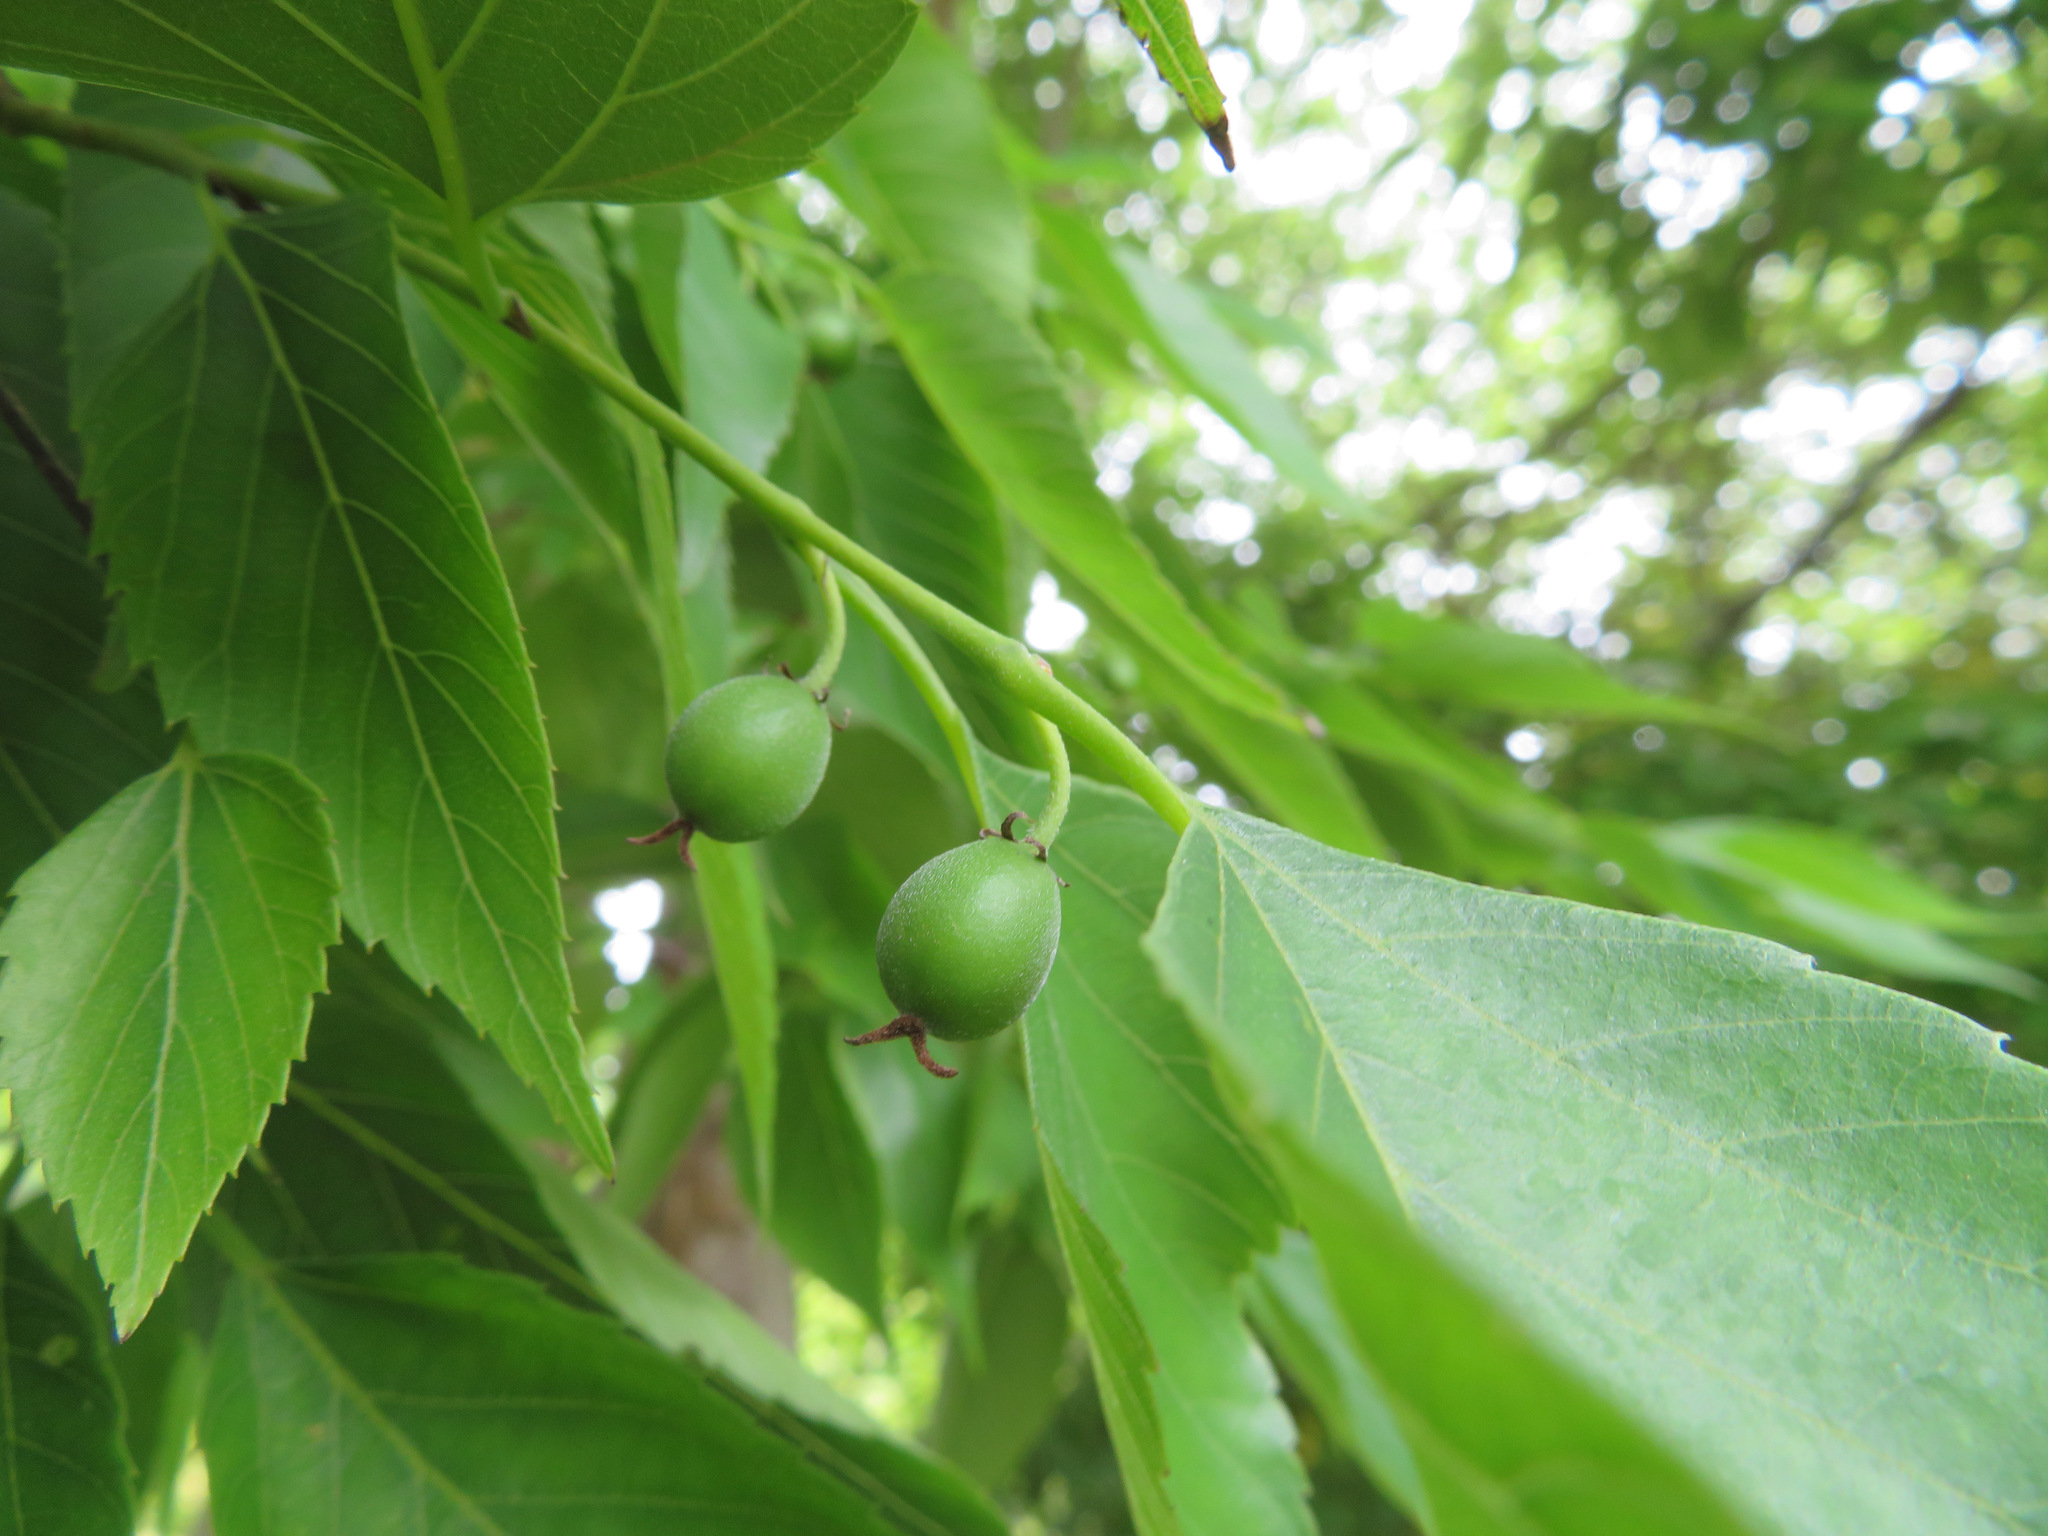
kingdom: Plantae
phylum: Tracheophyta
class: Magnoliopsida
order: Rosales
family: Cannabaceae
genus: Aphananthe
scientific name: Aphananthe aspera
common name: Mukutree
